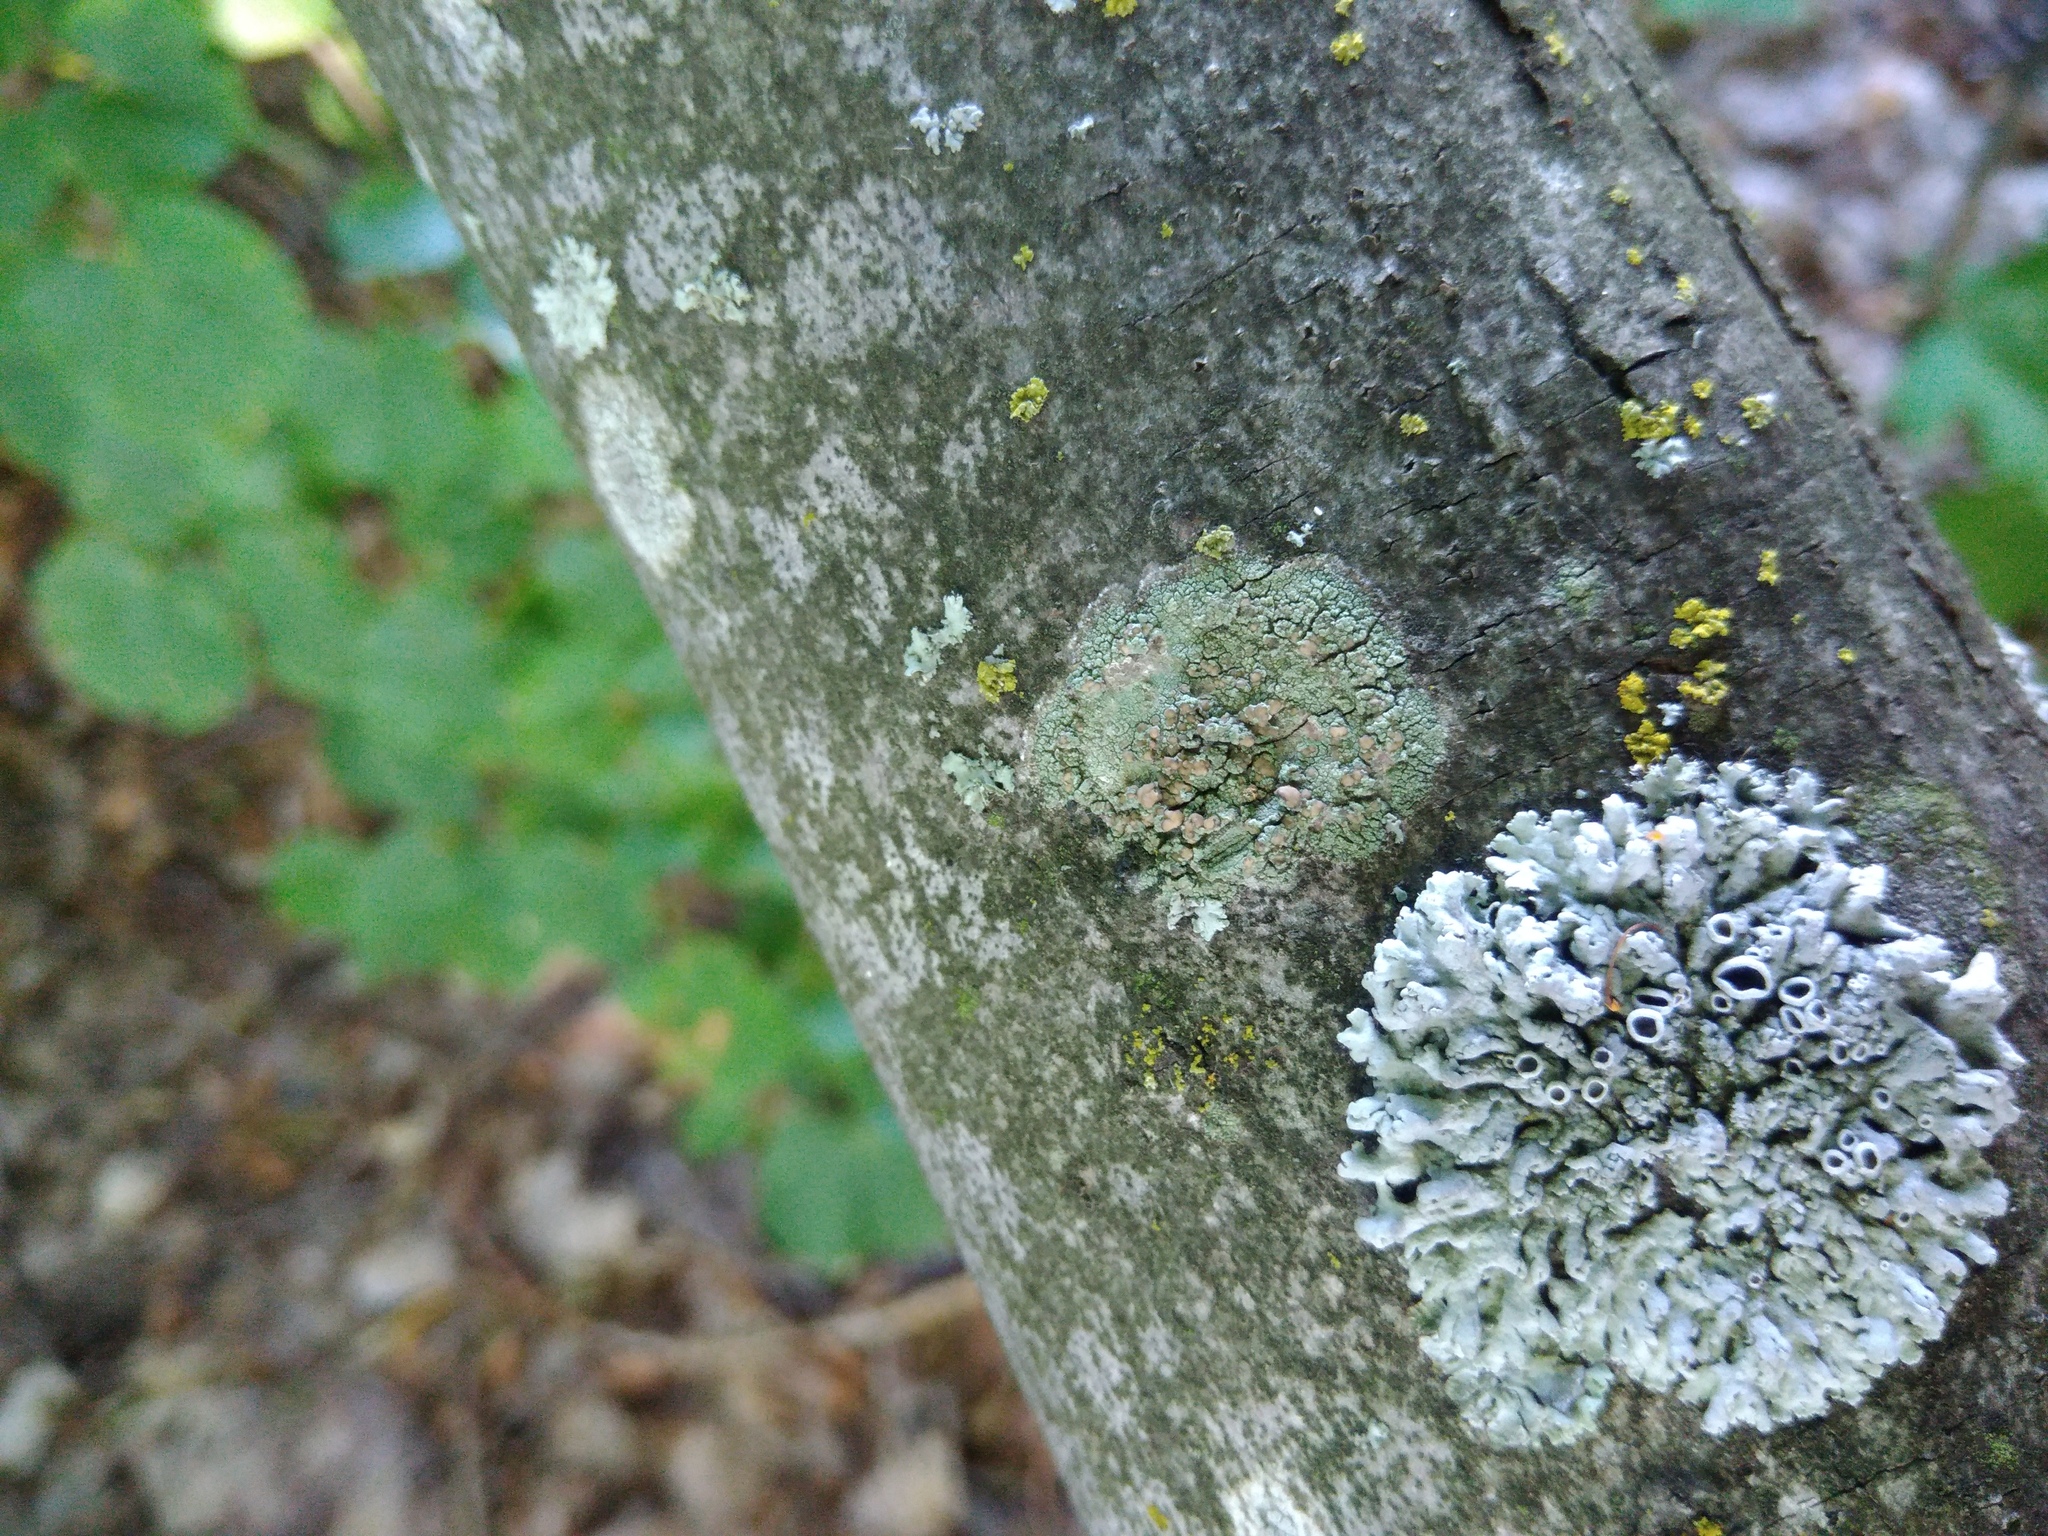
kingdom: Fungi
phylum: Ascomycota
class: Lecanoromycetes
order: Lecanorales
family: Lecanoraceae
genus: Lecanora
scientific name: Lecanora symmicta
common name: Fused rim lichen
